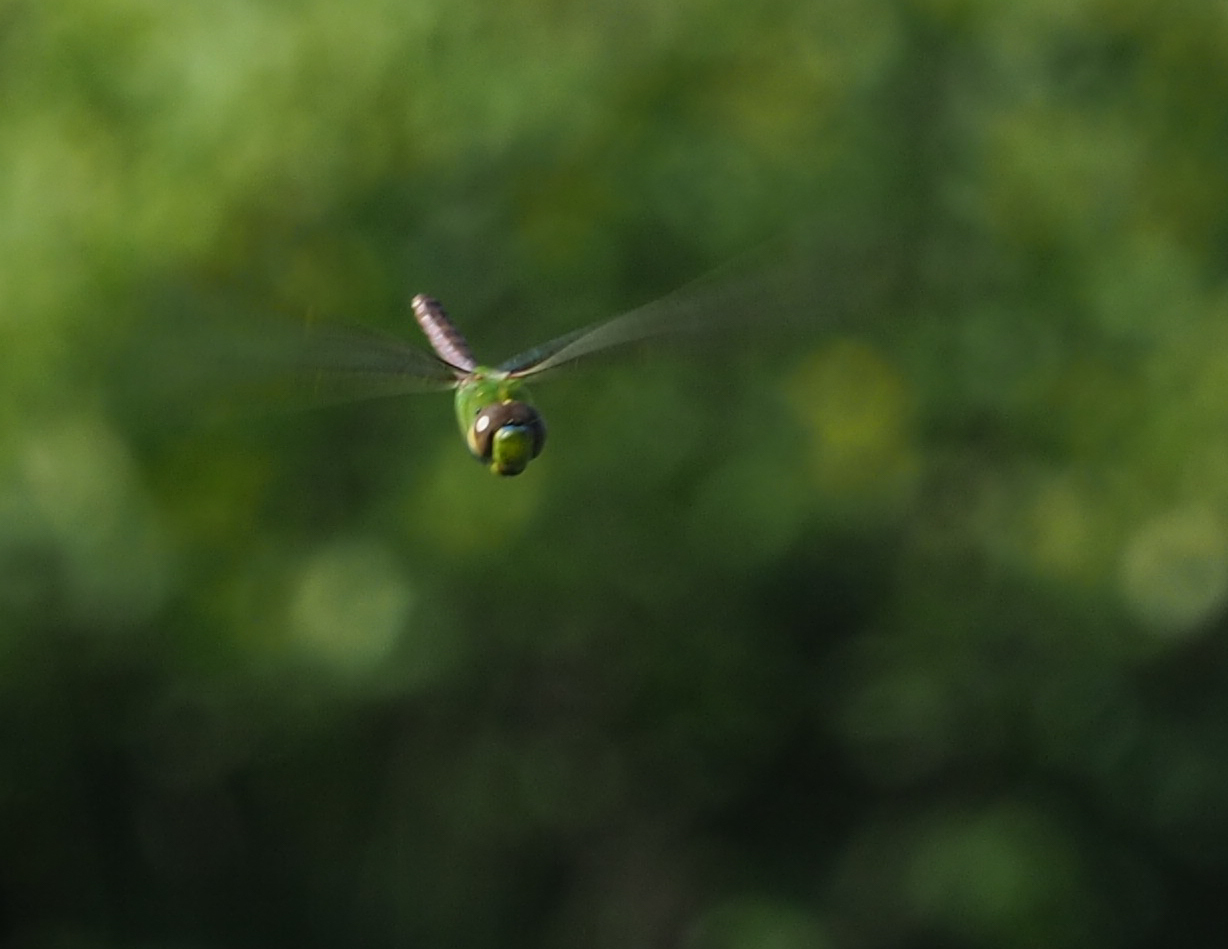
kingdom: Animalia
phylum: Arthropoda
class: Insecta
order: Odonata
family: Aeshnidae
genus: Anax
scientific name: Anax junius
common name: Common green darner
